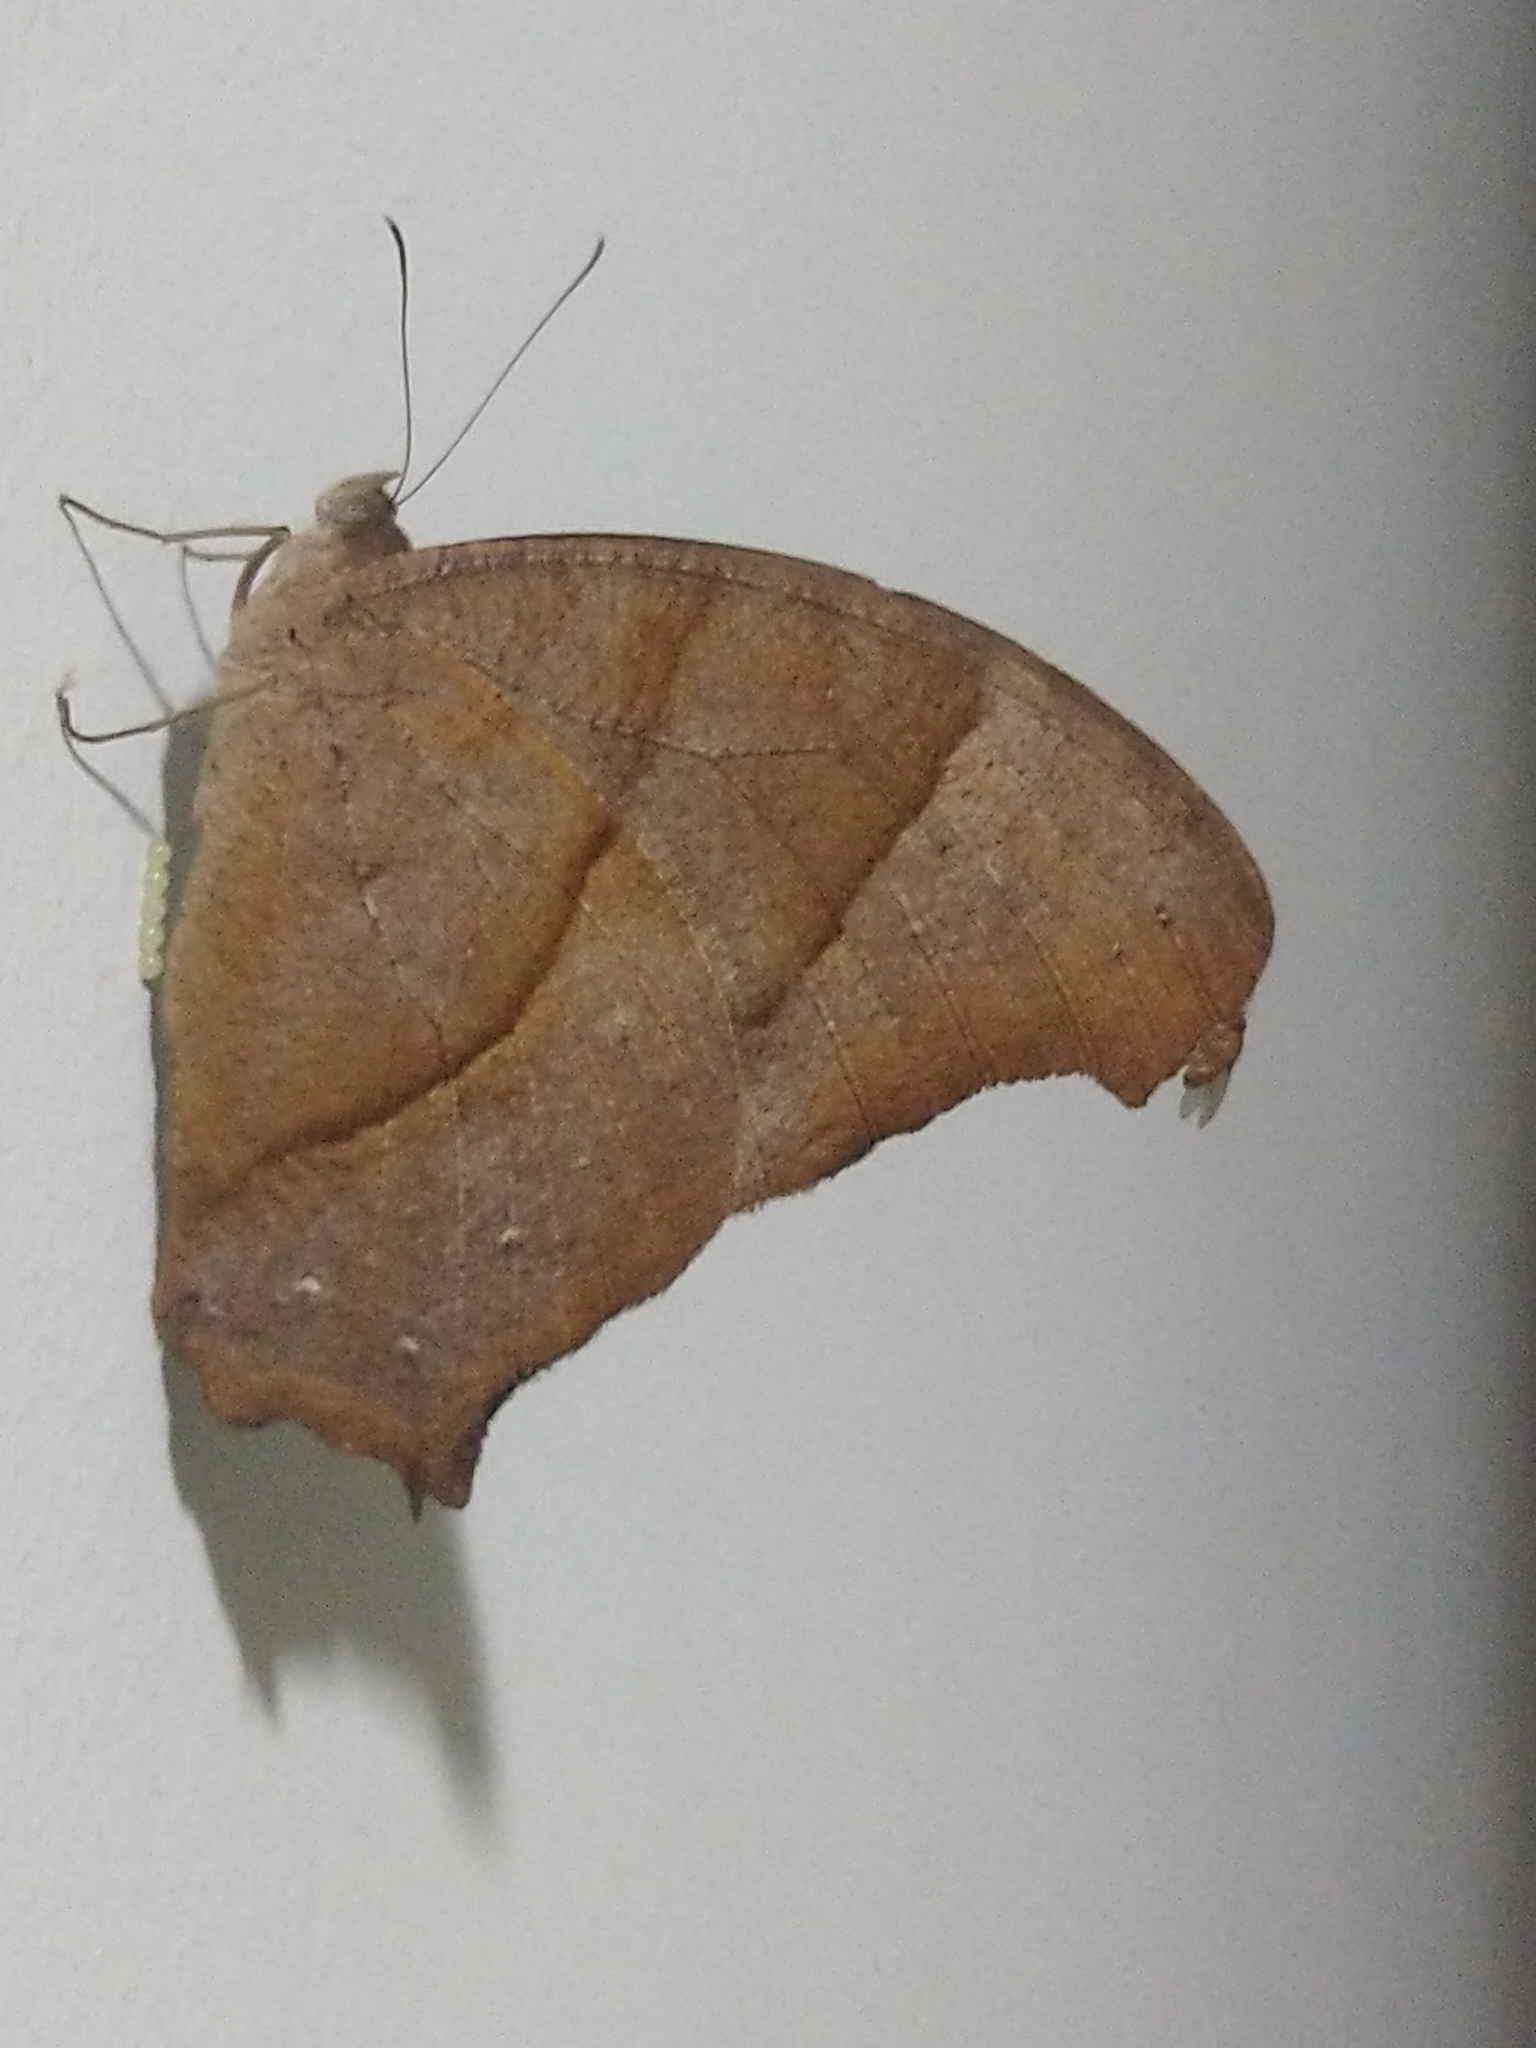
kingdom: Animalia
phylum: Arthropoda
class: Insecta
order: Lepidoptera
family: Nymphalidae
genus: Melanitis
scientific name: Melanitis leda
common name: Twilight brown
